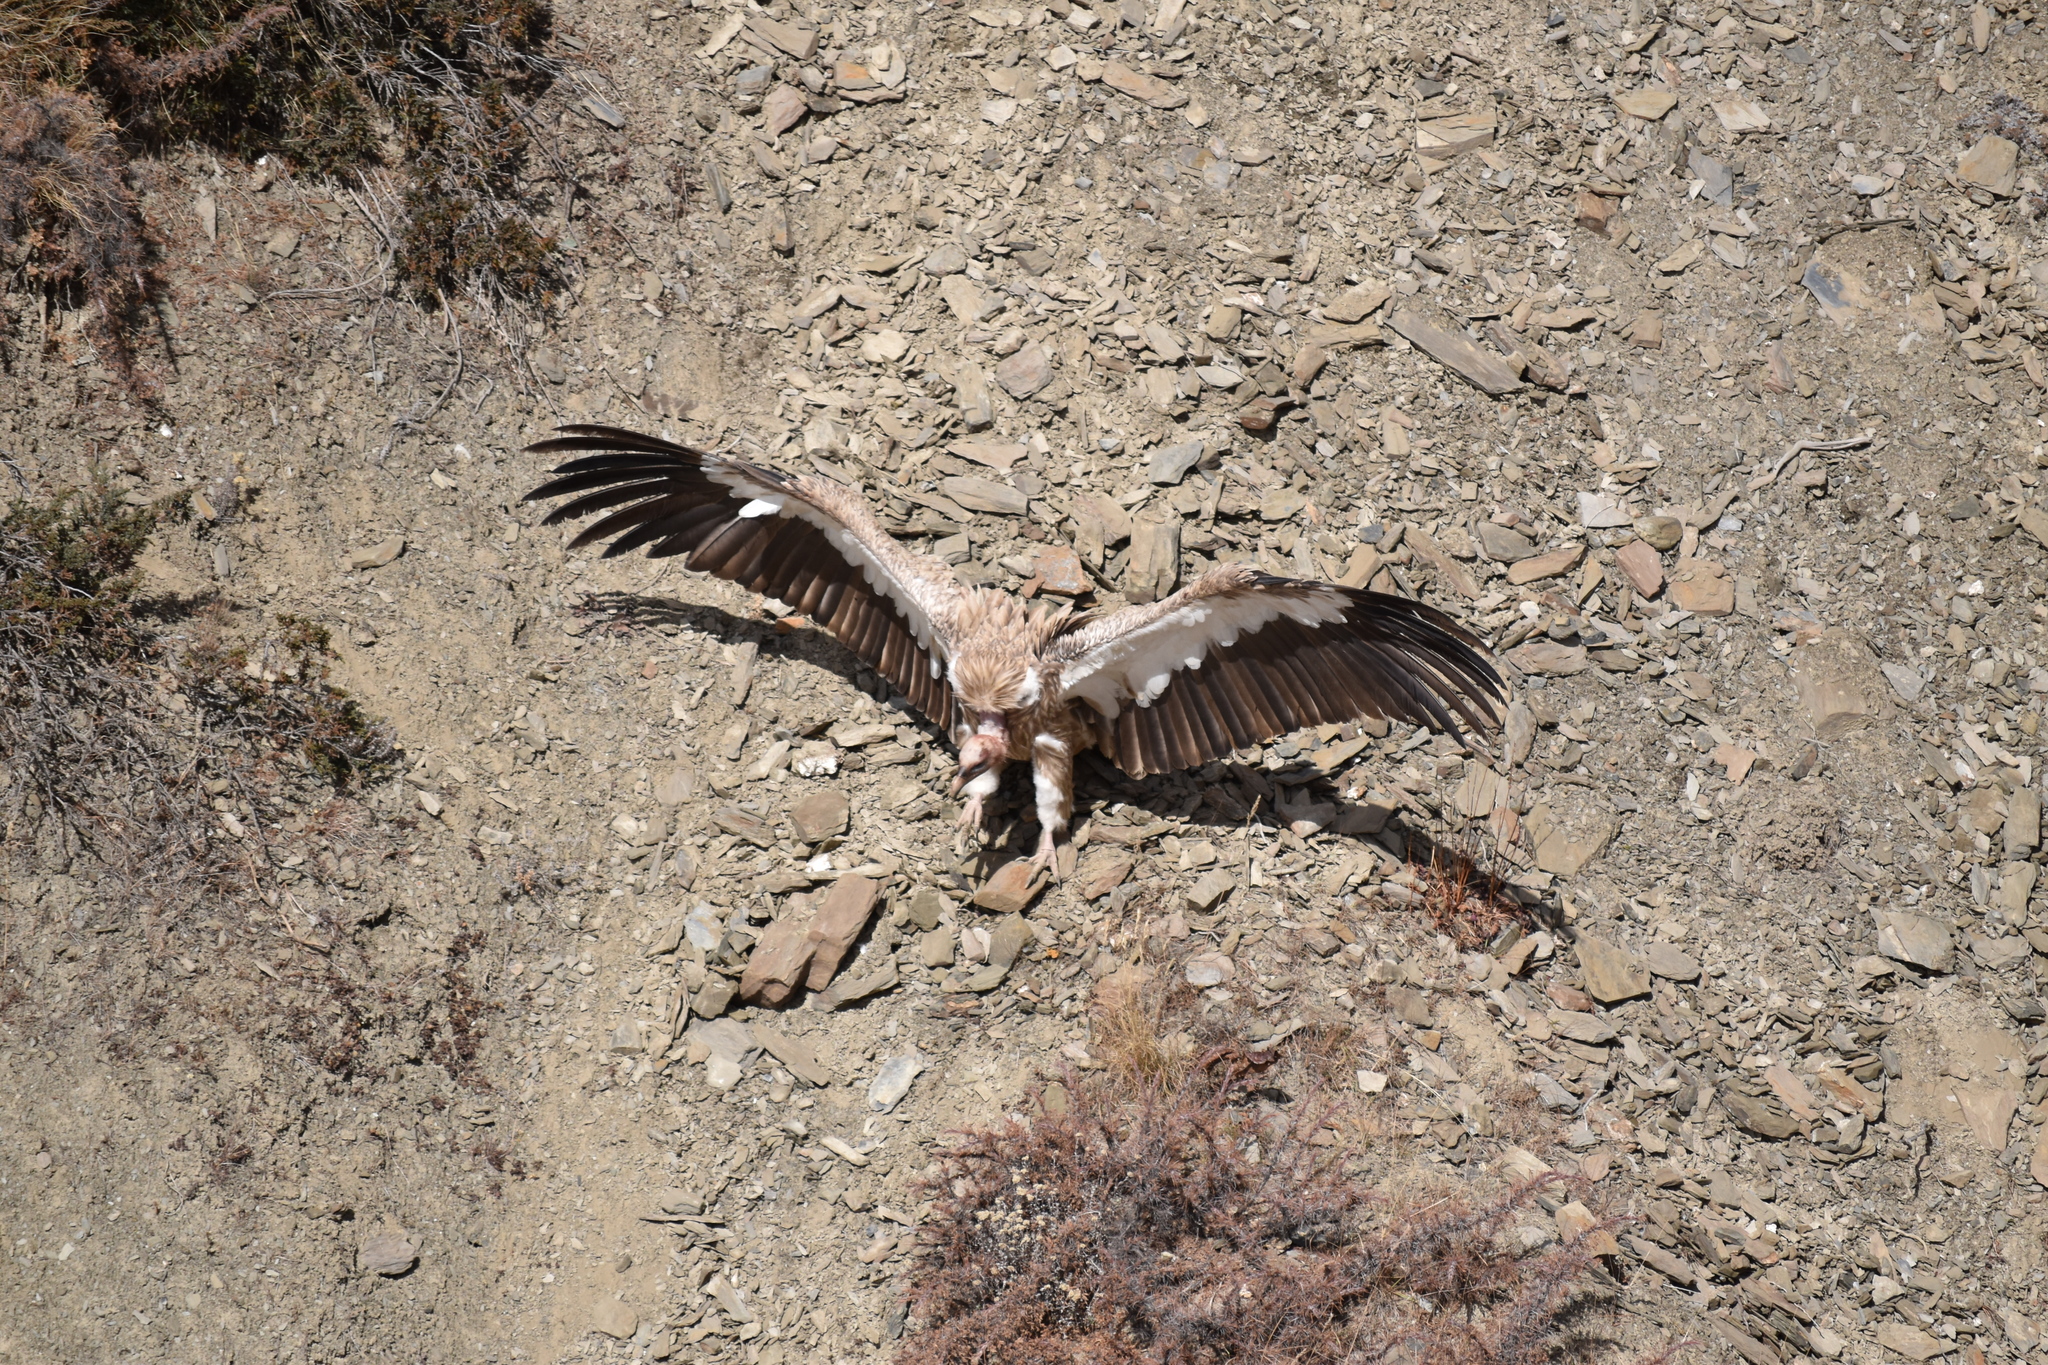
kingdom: Animalia
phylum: Chordata
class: Aves
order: Accipitriformes
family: Accipitridae
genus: Gyps
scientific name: Gyps himalayensis
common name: Himalayan griffon
